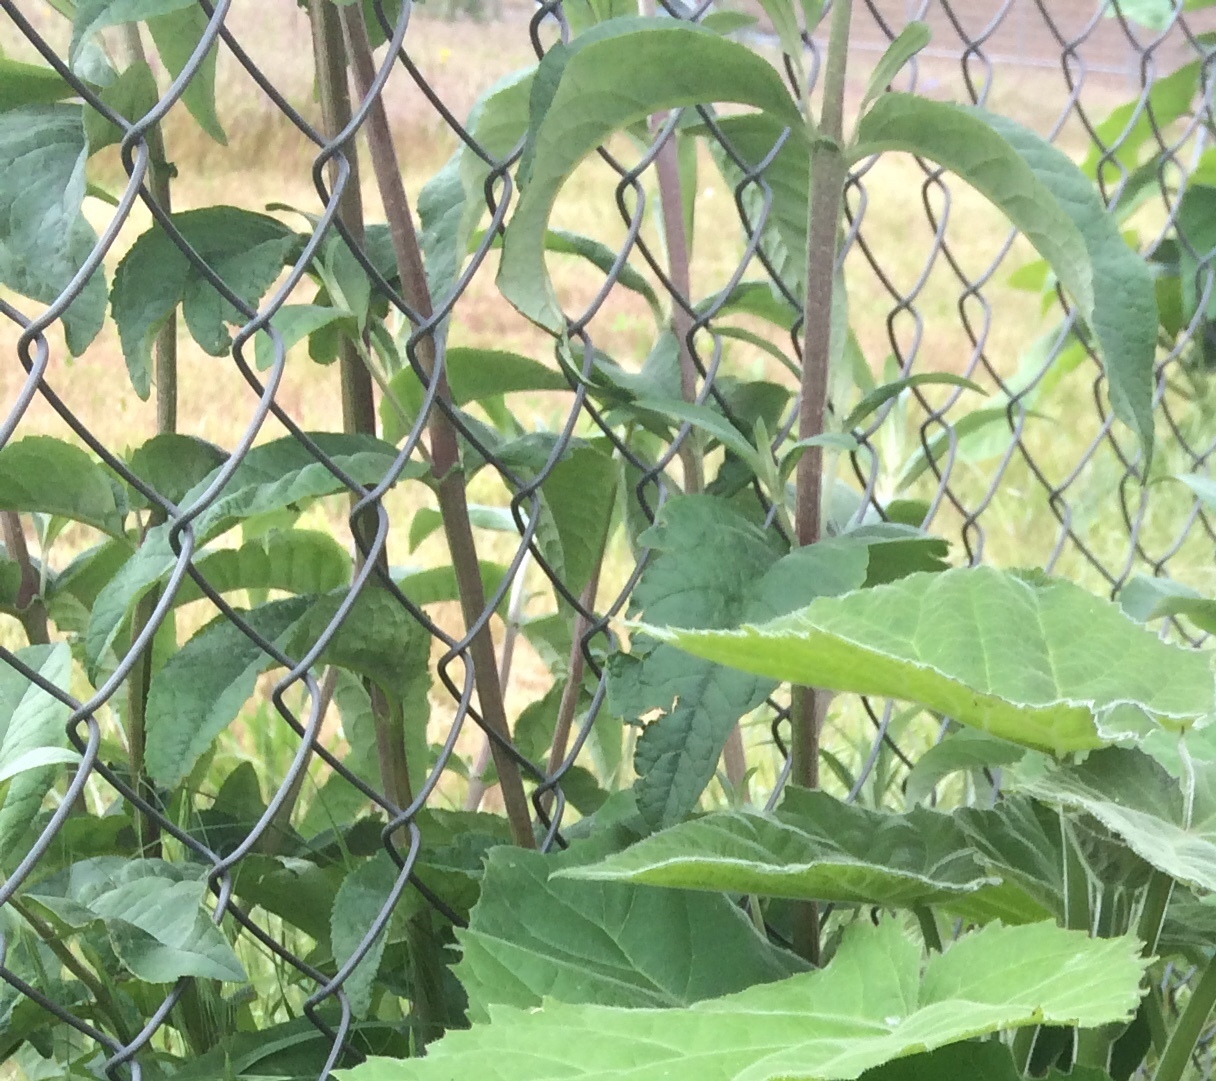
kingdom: Plantae
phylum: Tracheophyta
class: Magnoliopsida
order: Lamiales
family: Scrophulariaceae
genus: Buddleja
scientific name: Buddleja davidii
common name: Butterfly-bush
